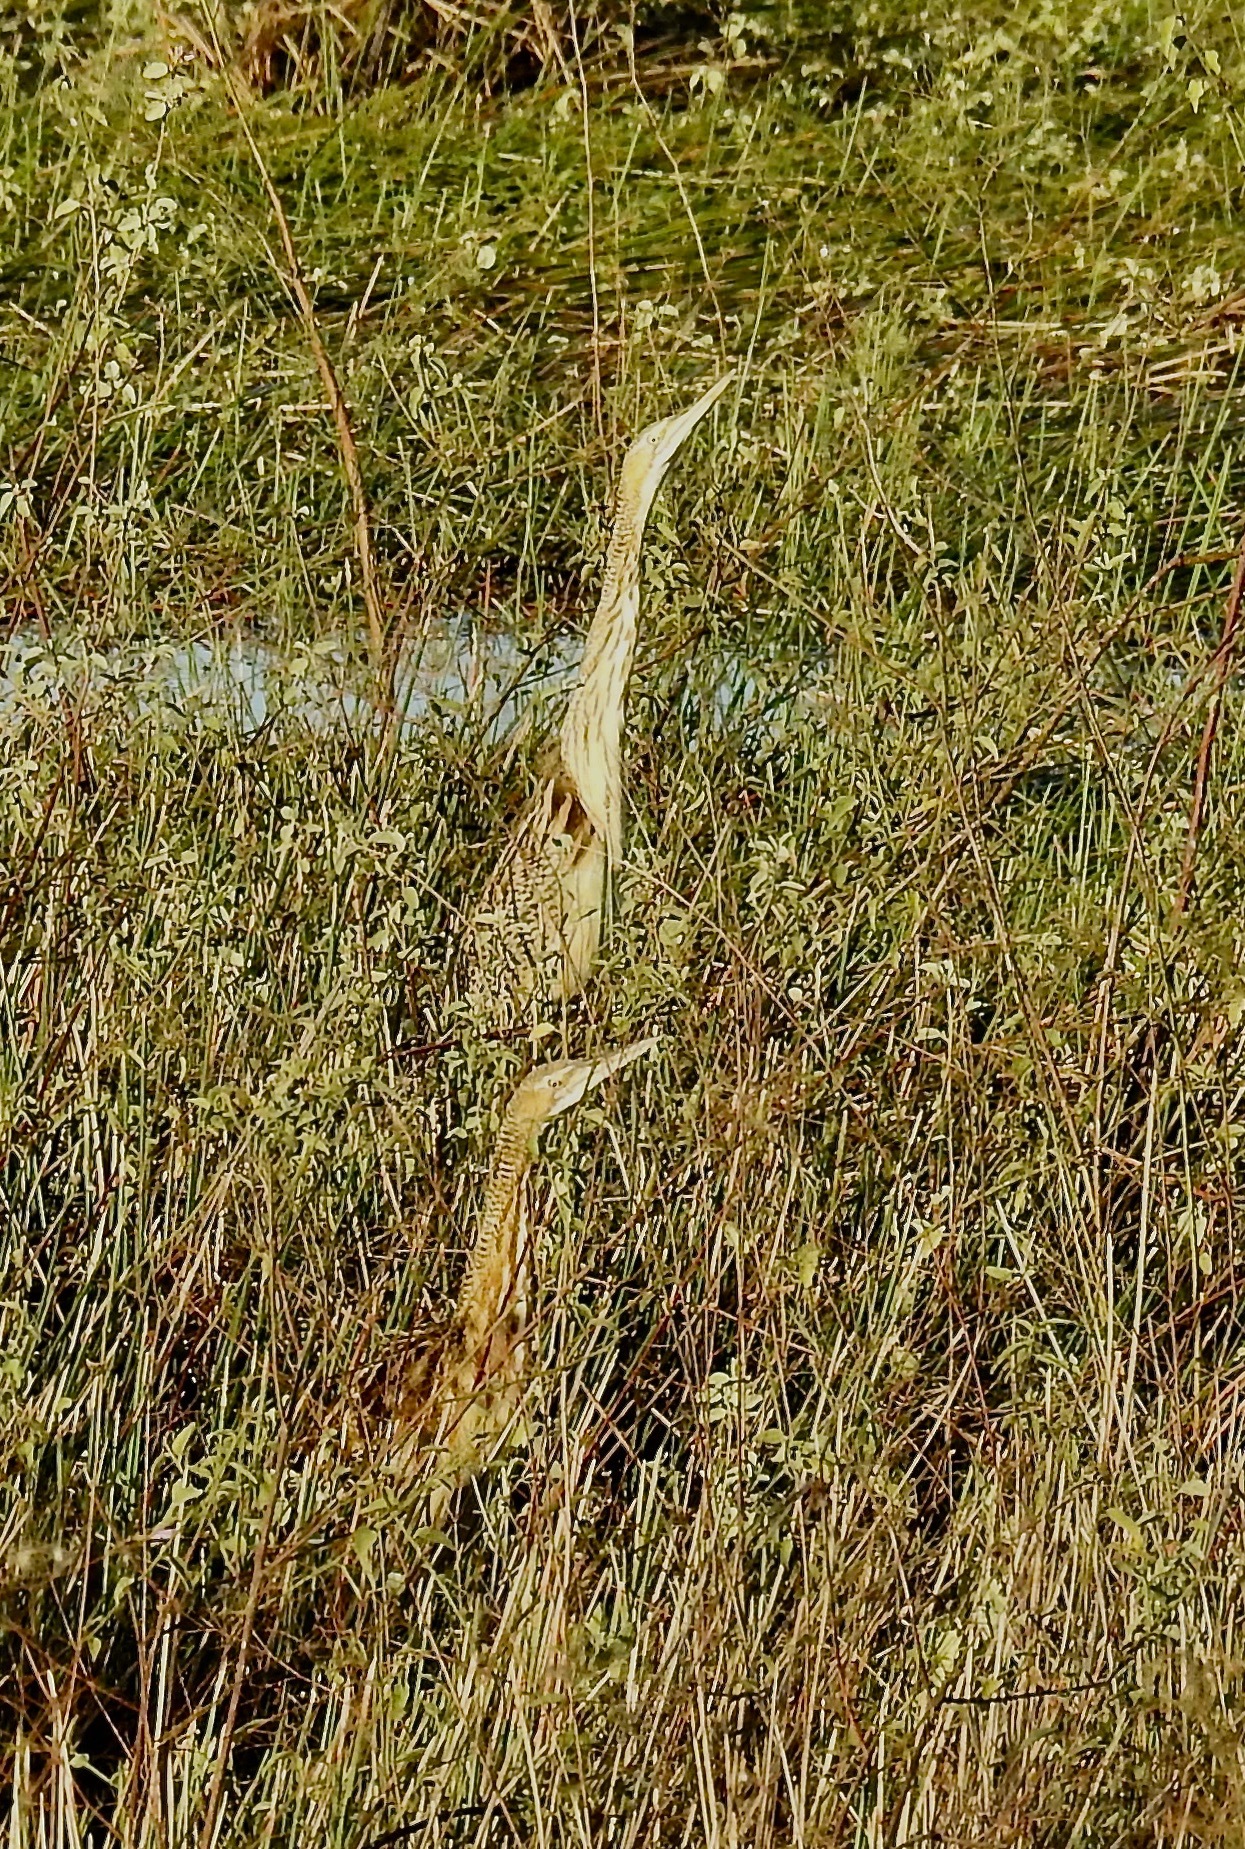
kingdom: Animalia
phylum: Chordata
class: Aves
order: Pelecaniformes
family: Ardeidae
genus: Botaurus
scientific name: Botaurus pinnatus
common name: Pinnated bittern
